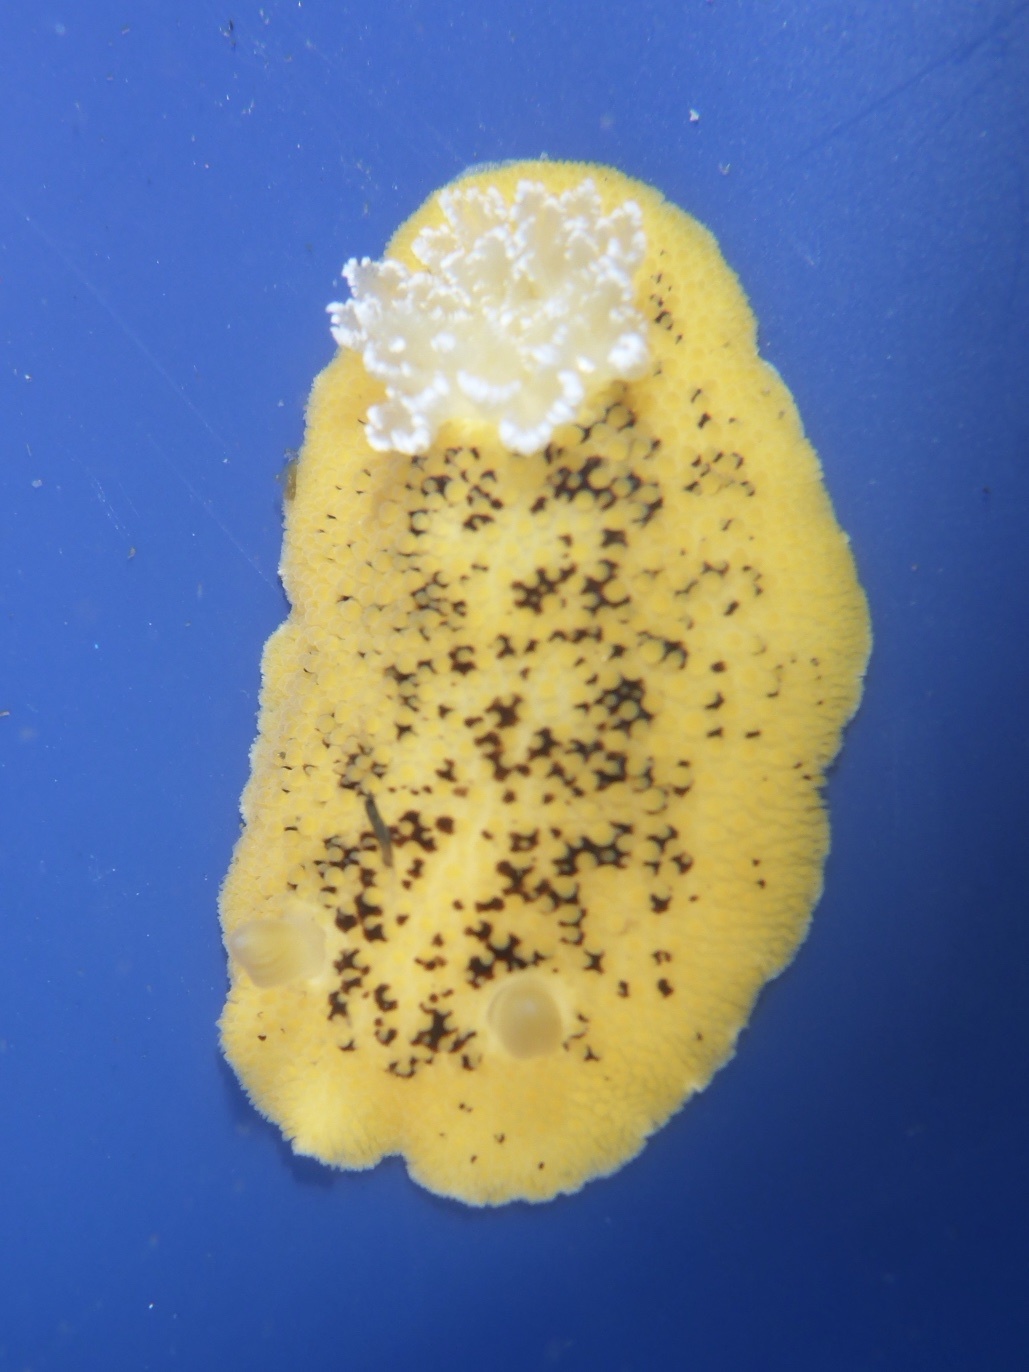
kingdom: Animalia
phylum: Mollusca
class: Gastropoda
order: Nudibranchia
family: Discodorididae
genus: Peltodoris
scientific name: Peltodoris nobilis
